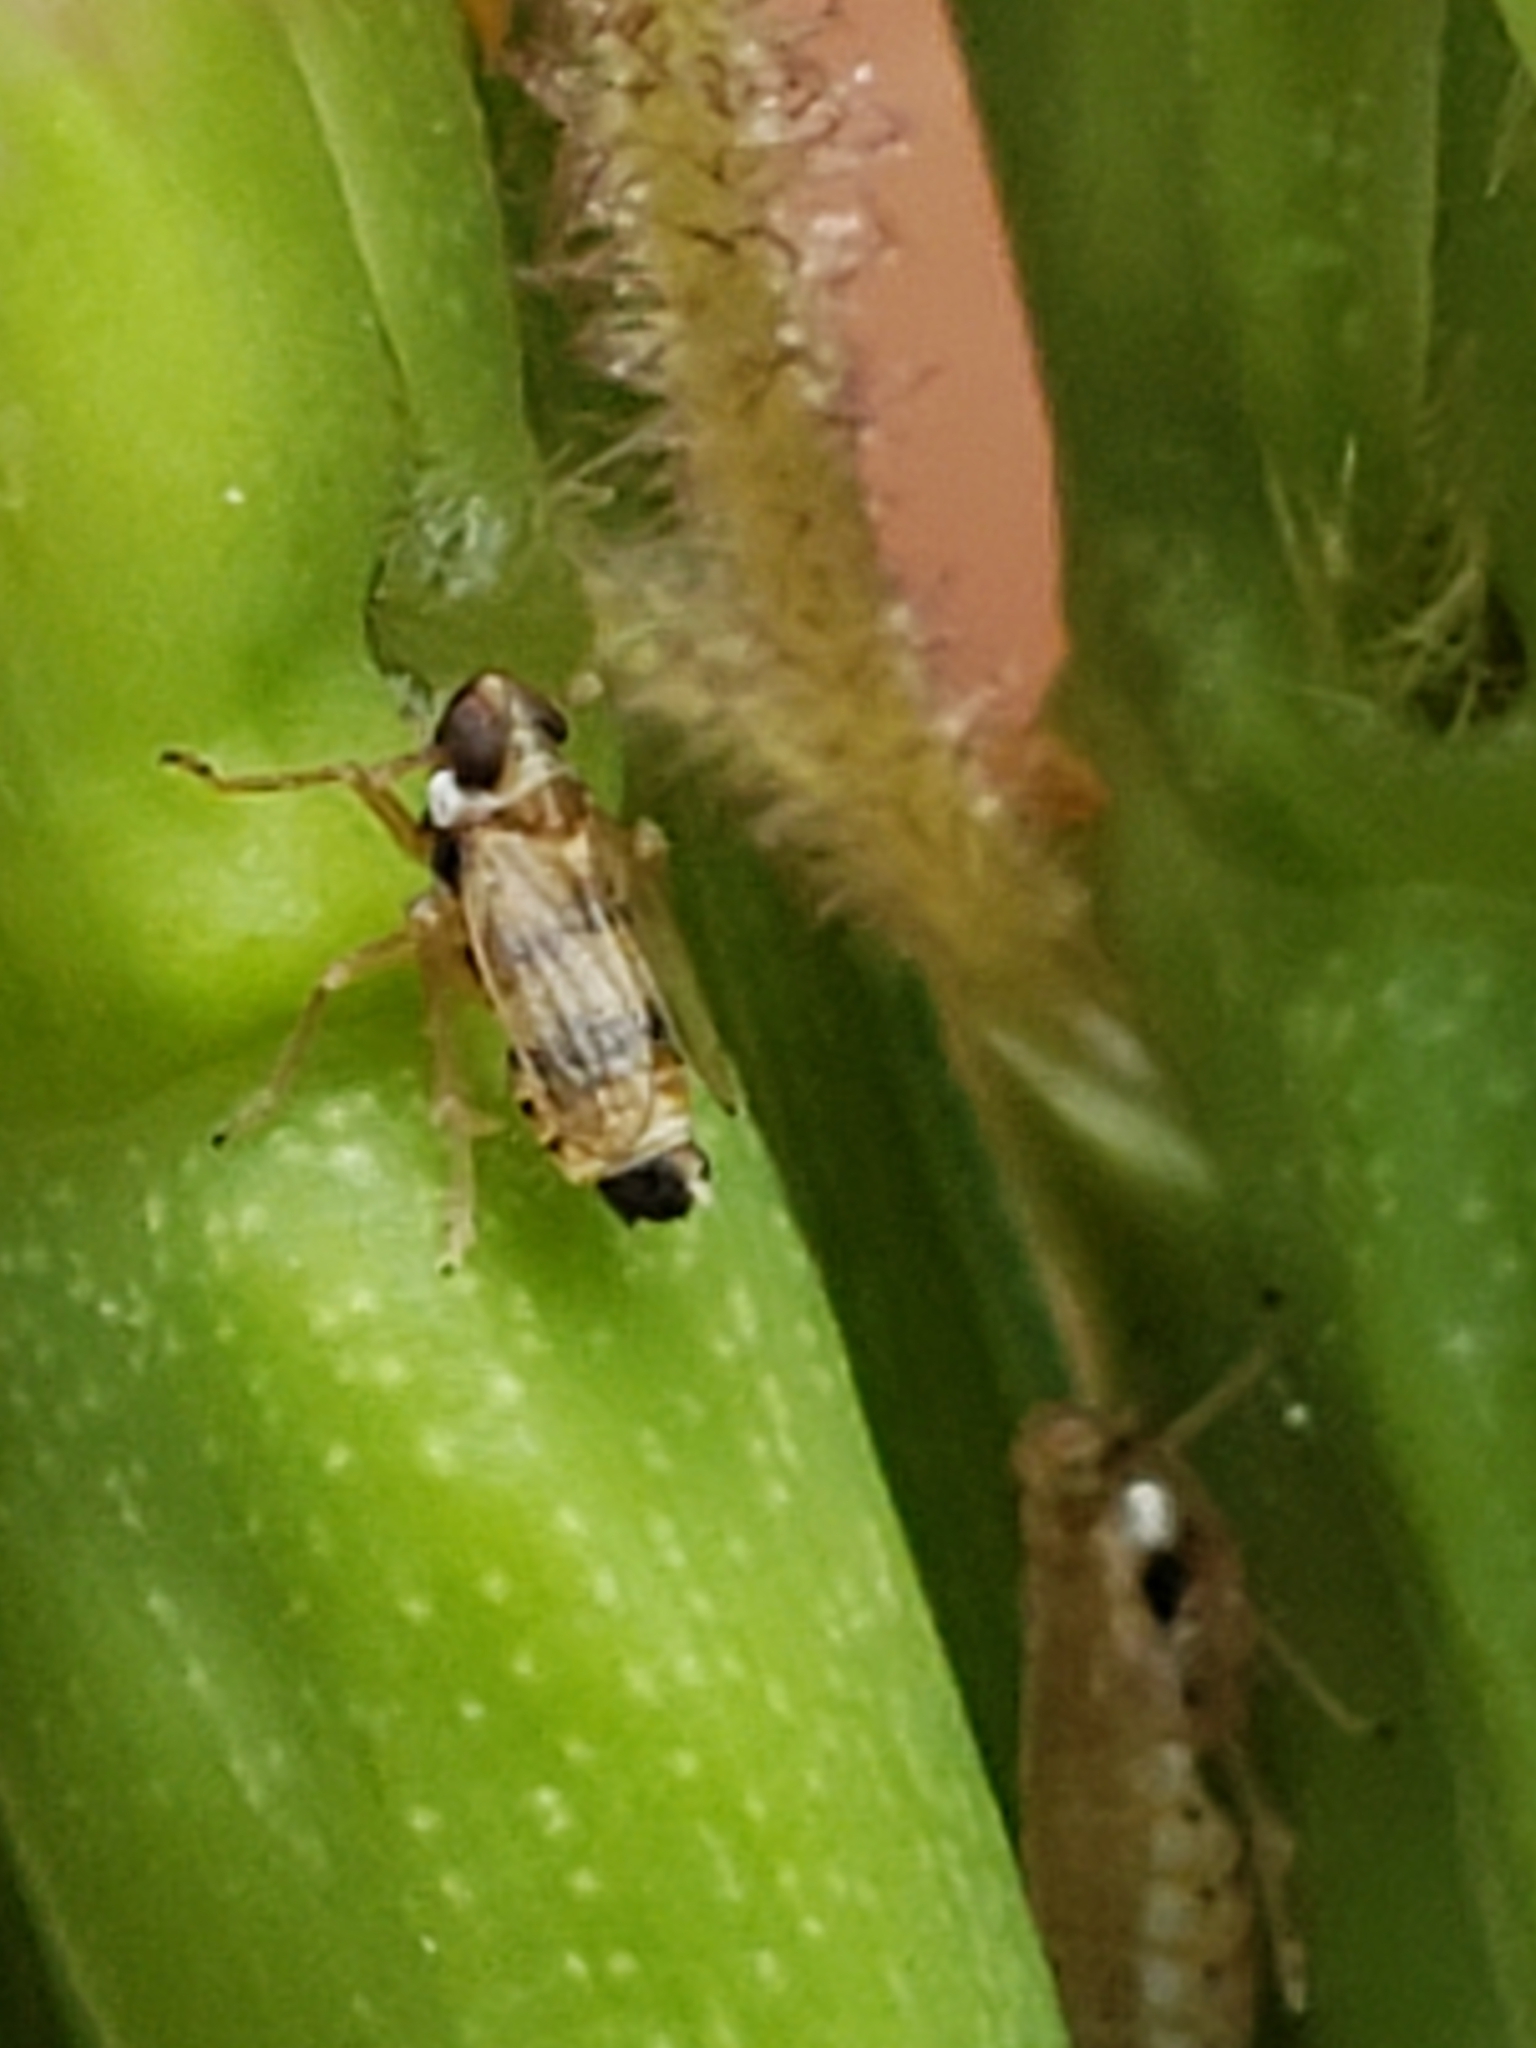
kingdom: Animalia
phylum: Arthropoda
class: Insecta
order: Hemiptera
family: Delphacidae
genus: Delphacodes
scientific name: Delphacodes shermani
